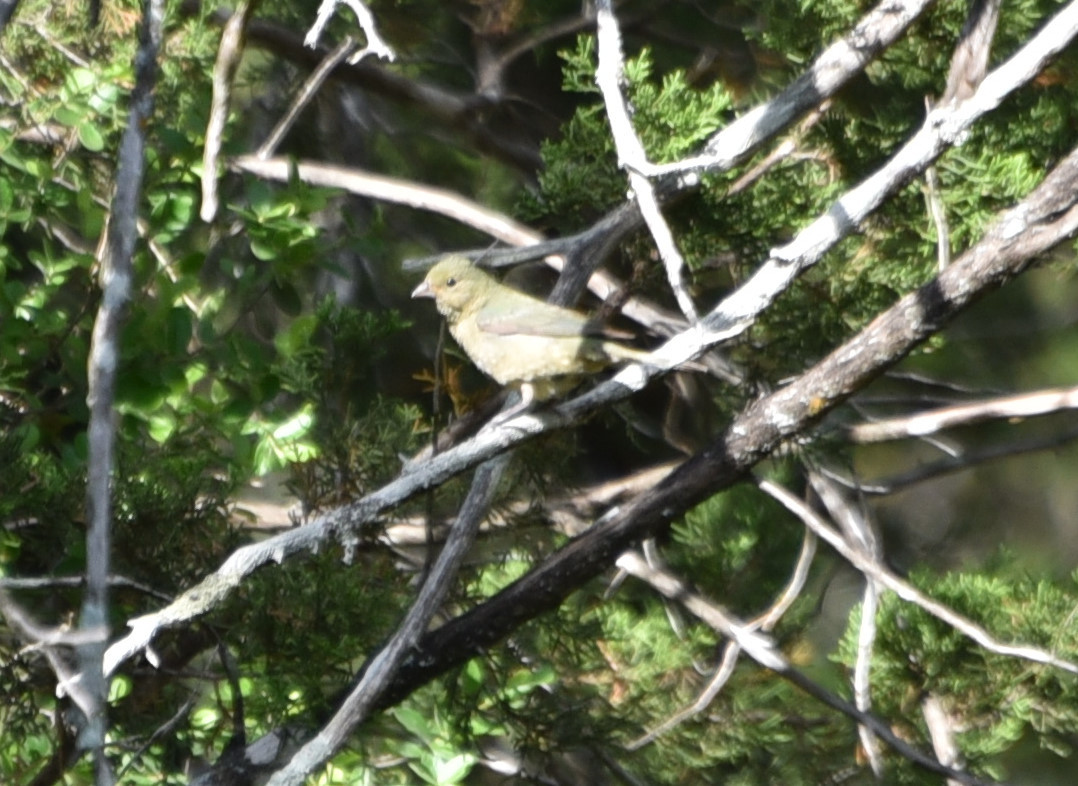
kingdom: Animalia
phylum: Chordata
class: Aves
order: Passeriformes
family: Cardinalidae
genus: Passerina
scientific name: Passerina ciris
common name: Painted bunting
